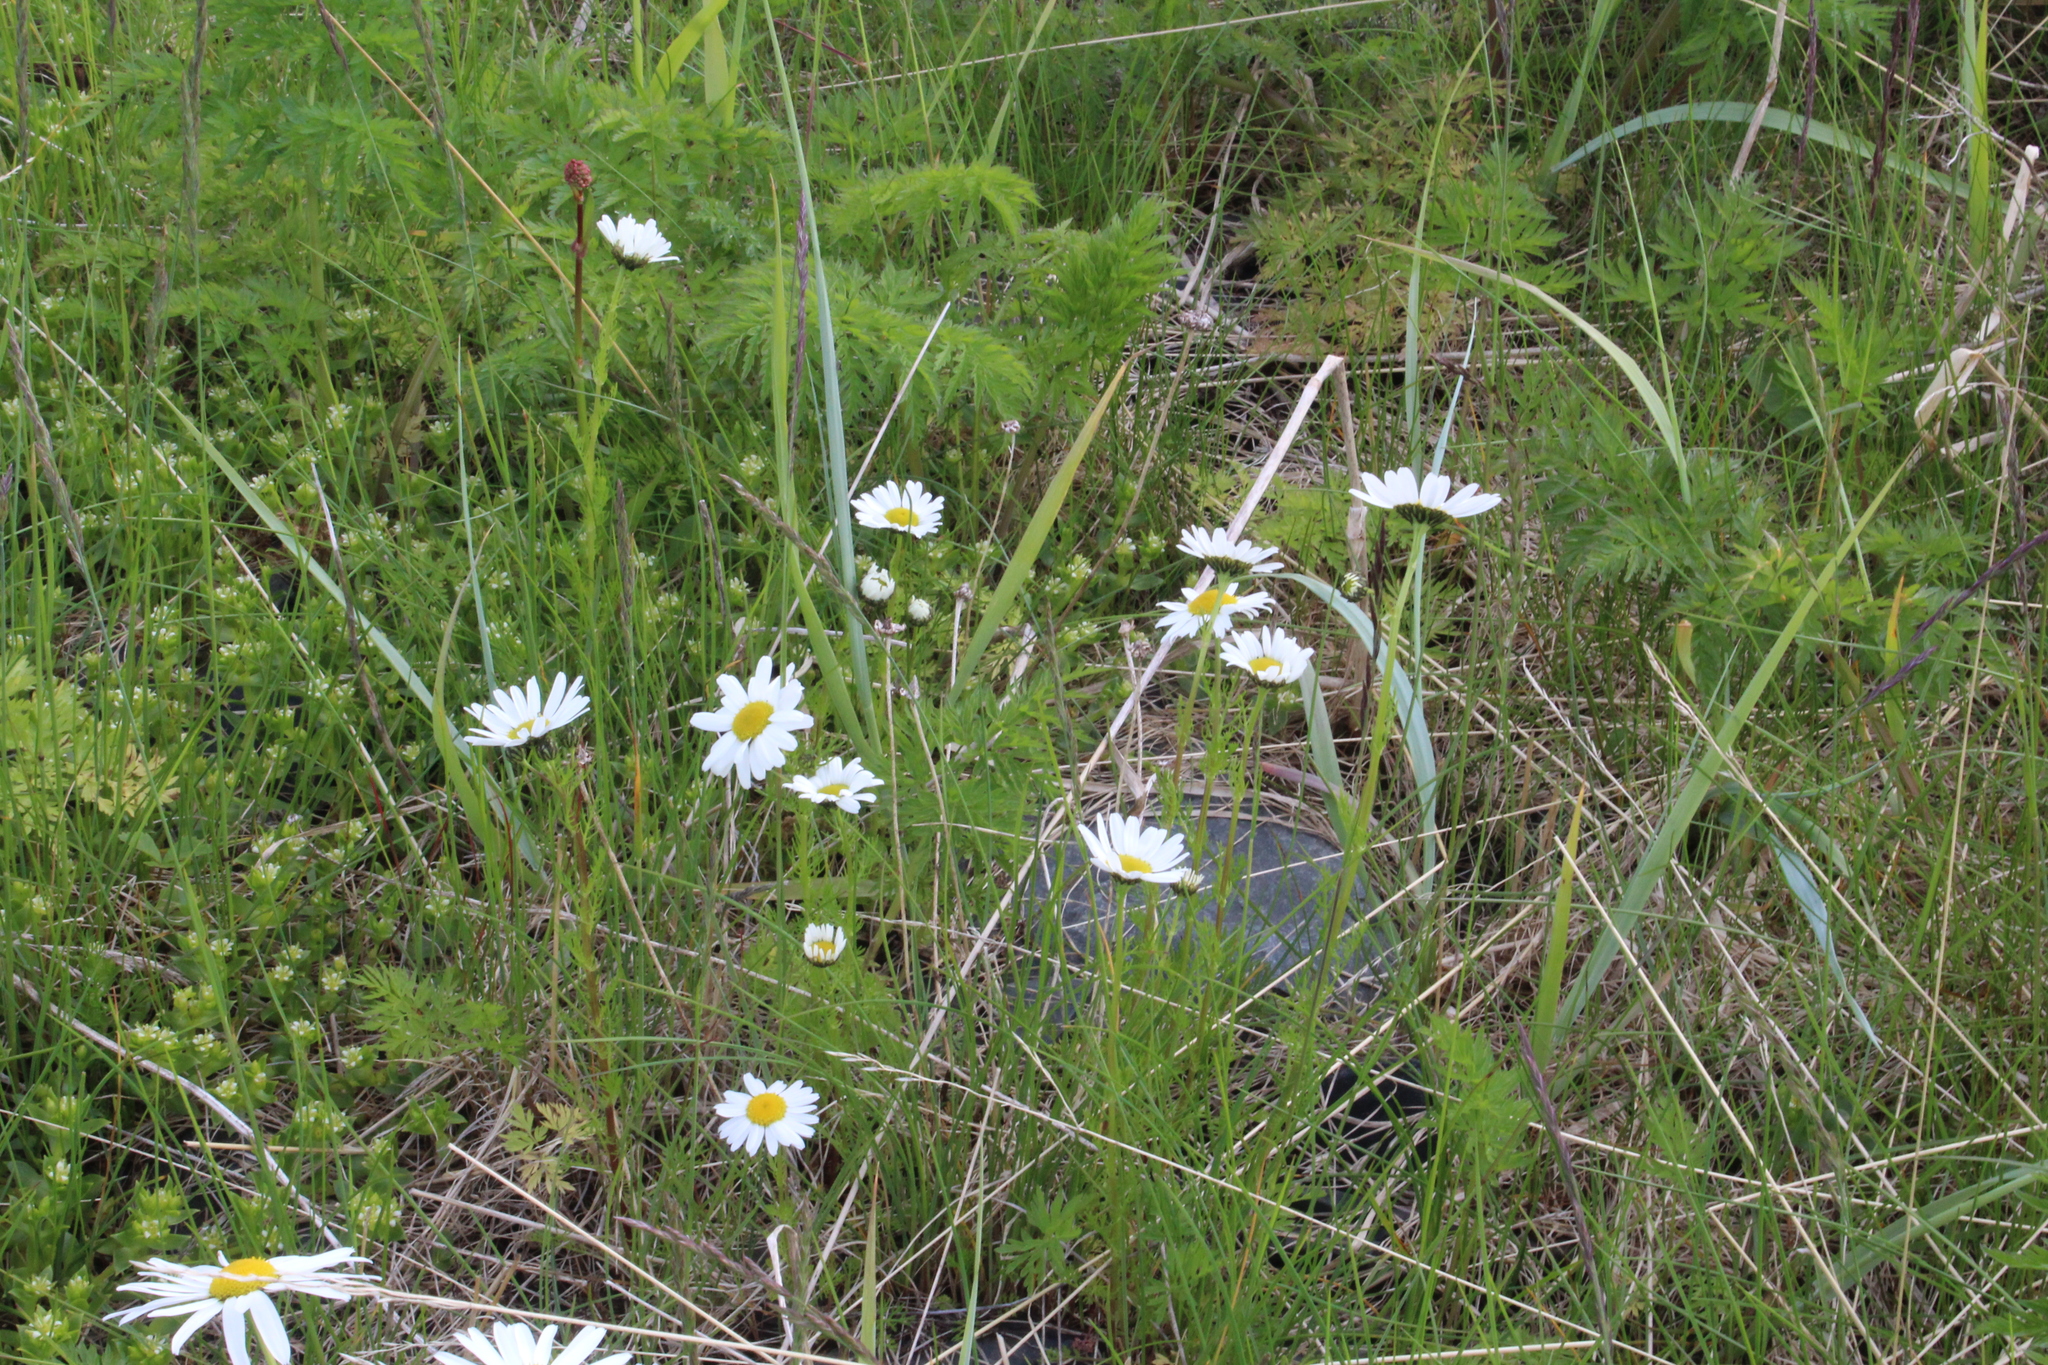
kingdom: Plantae
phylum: Tracheophyta
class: Magnoliopsida
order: Asterales
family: Asteraceae
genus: Tripleurospermum
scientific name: Tripleurospermum subpolare
